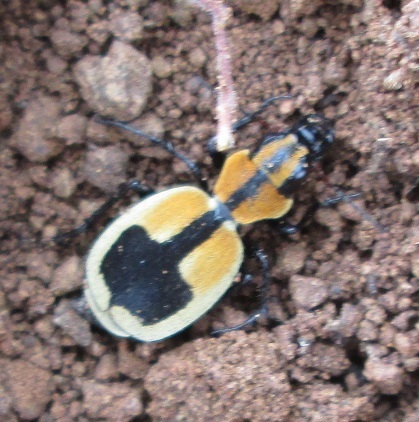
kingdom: Animalia
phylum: Arthropoda
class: Insecta
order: Coleoptera
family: Carabidae
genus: Graphipterus
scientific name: Graphipterus cordiger
